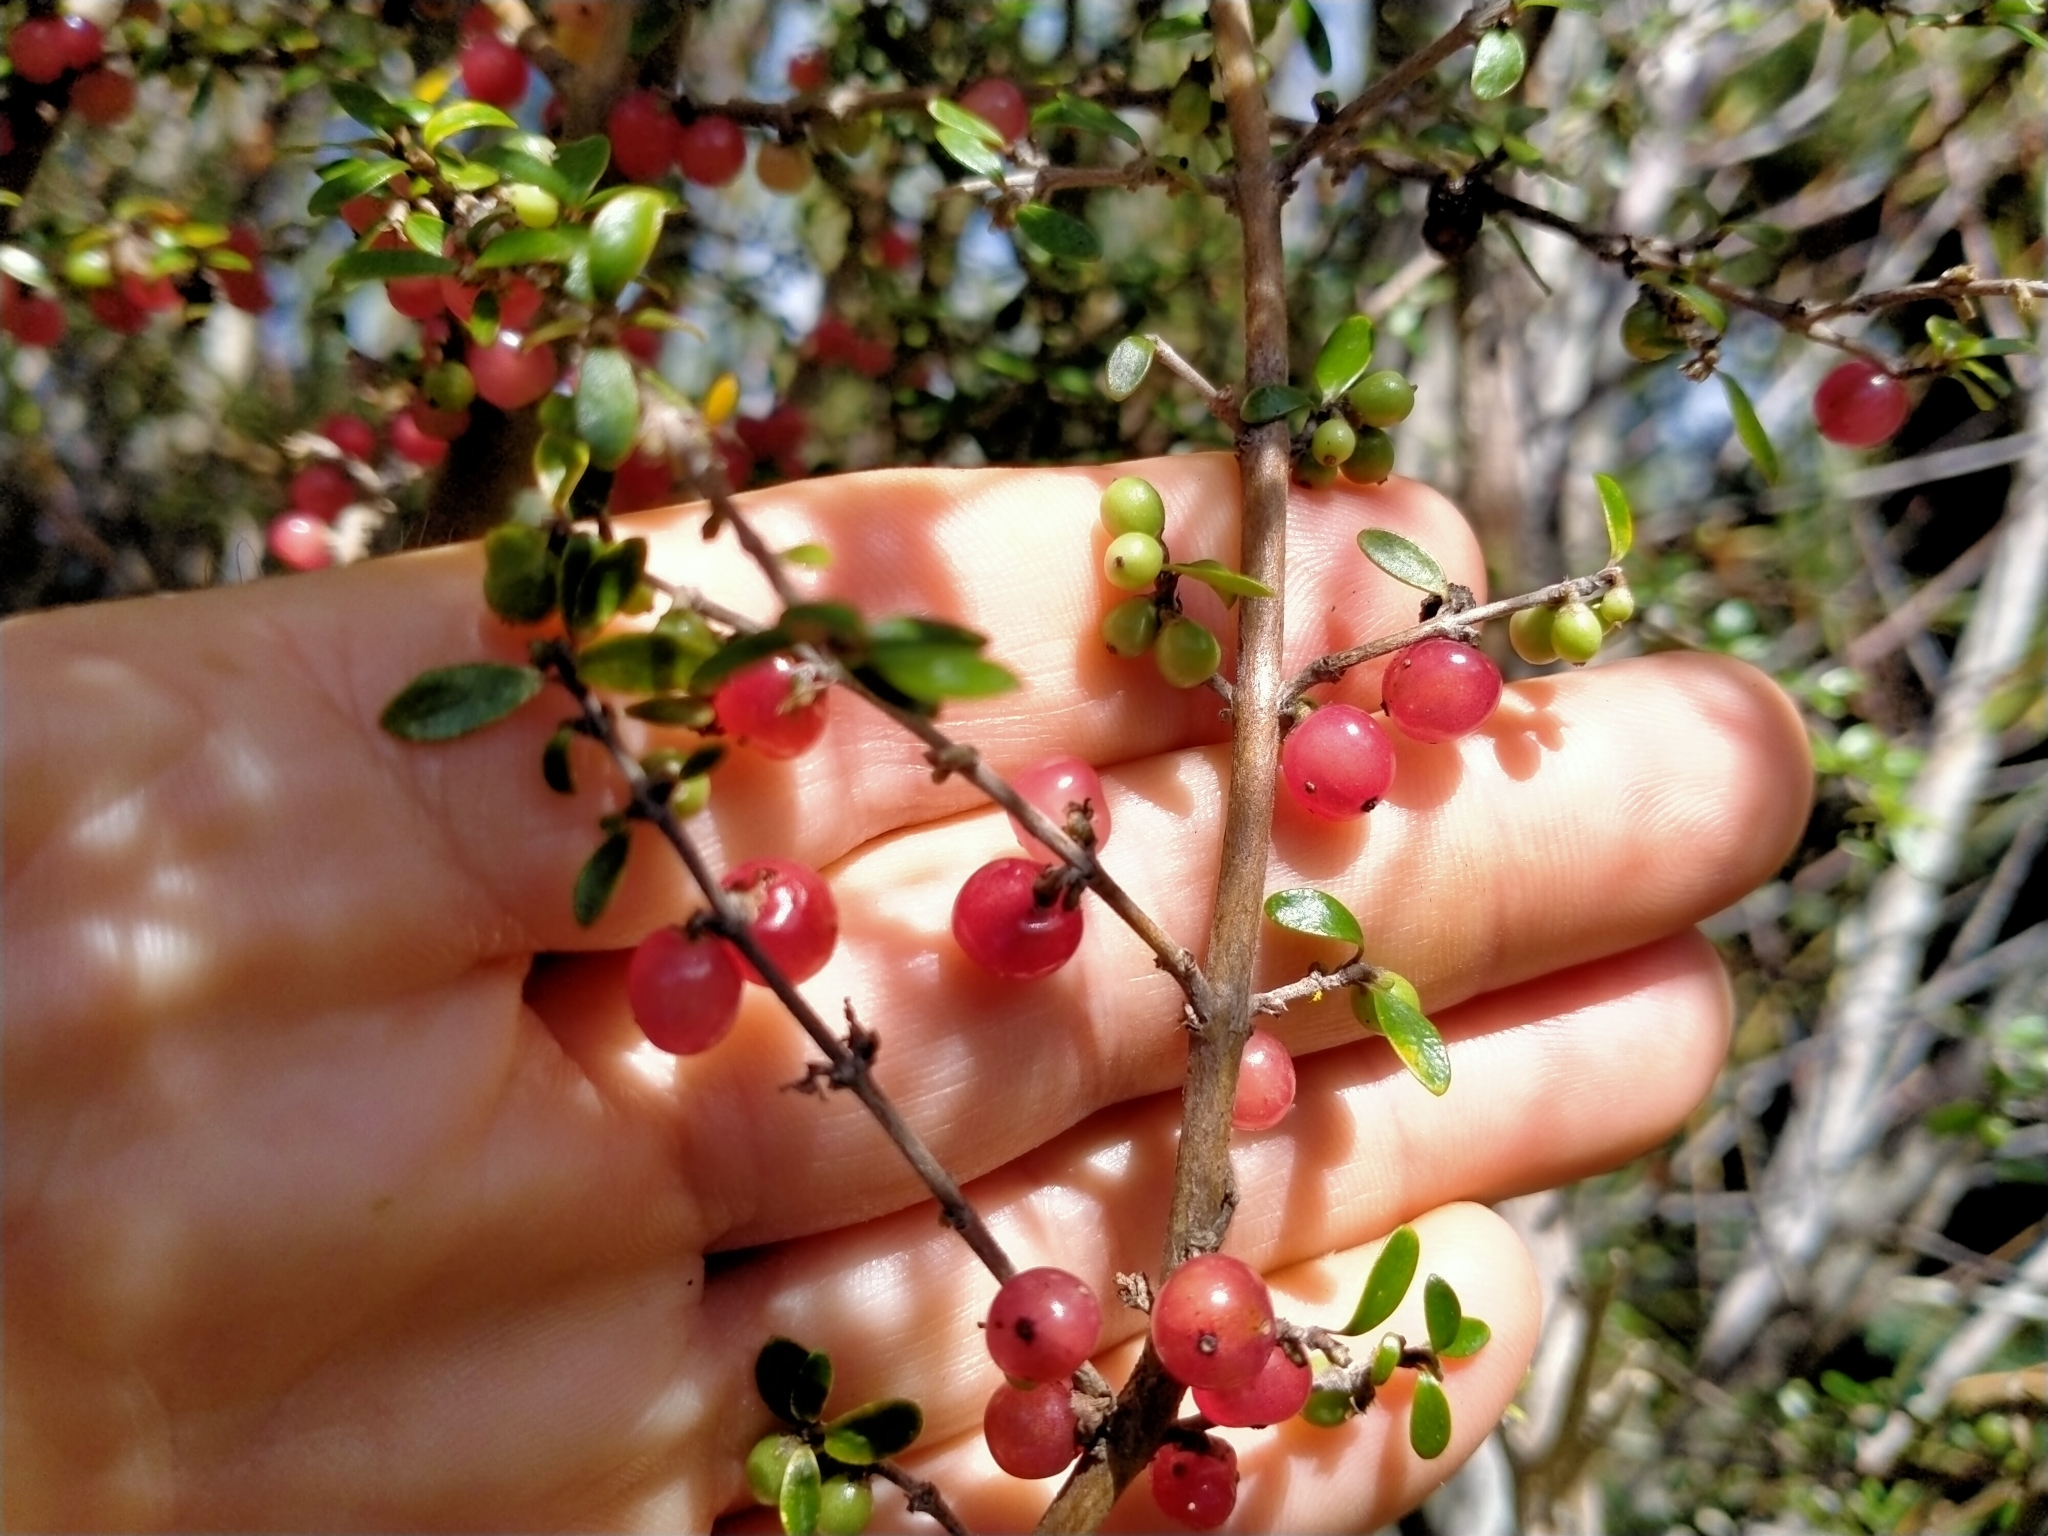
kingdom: Plantae
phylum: Tracheophyta
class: Magnoliopsida
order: Gentianales
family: Rubiaceae
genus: Coprosma
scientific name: Coprosma dumosa
